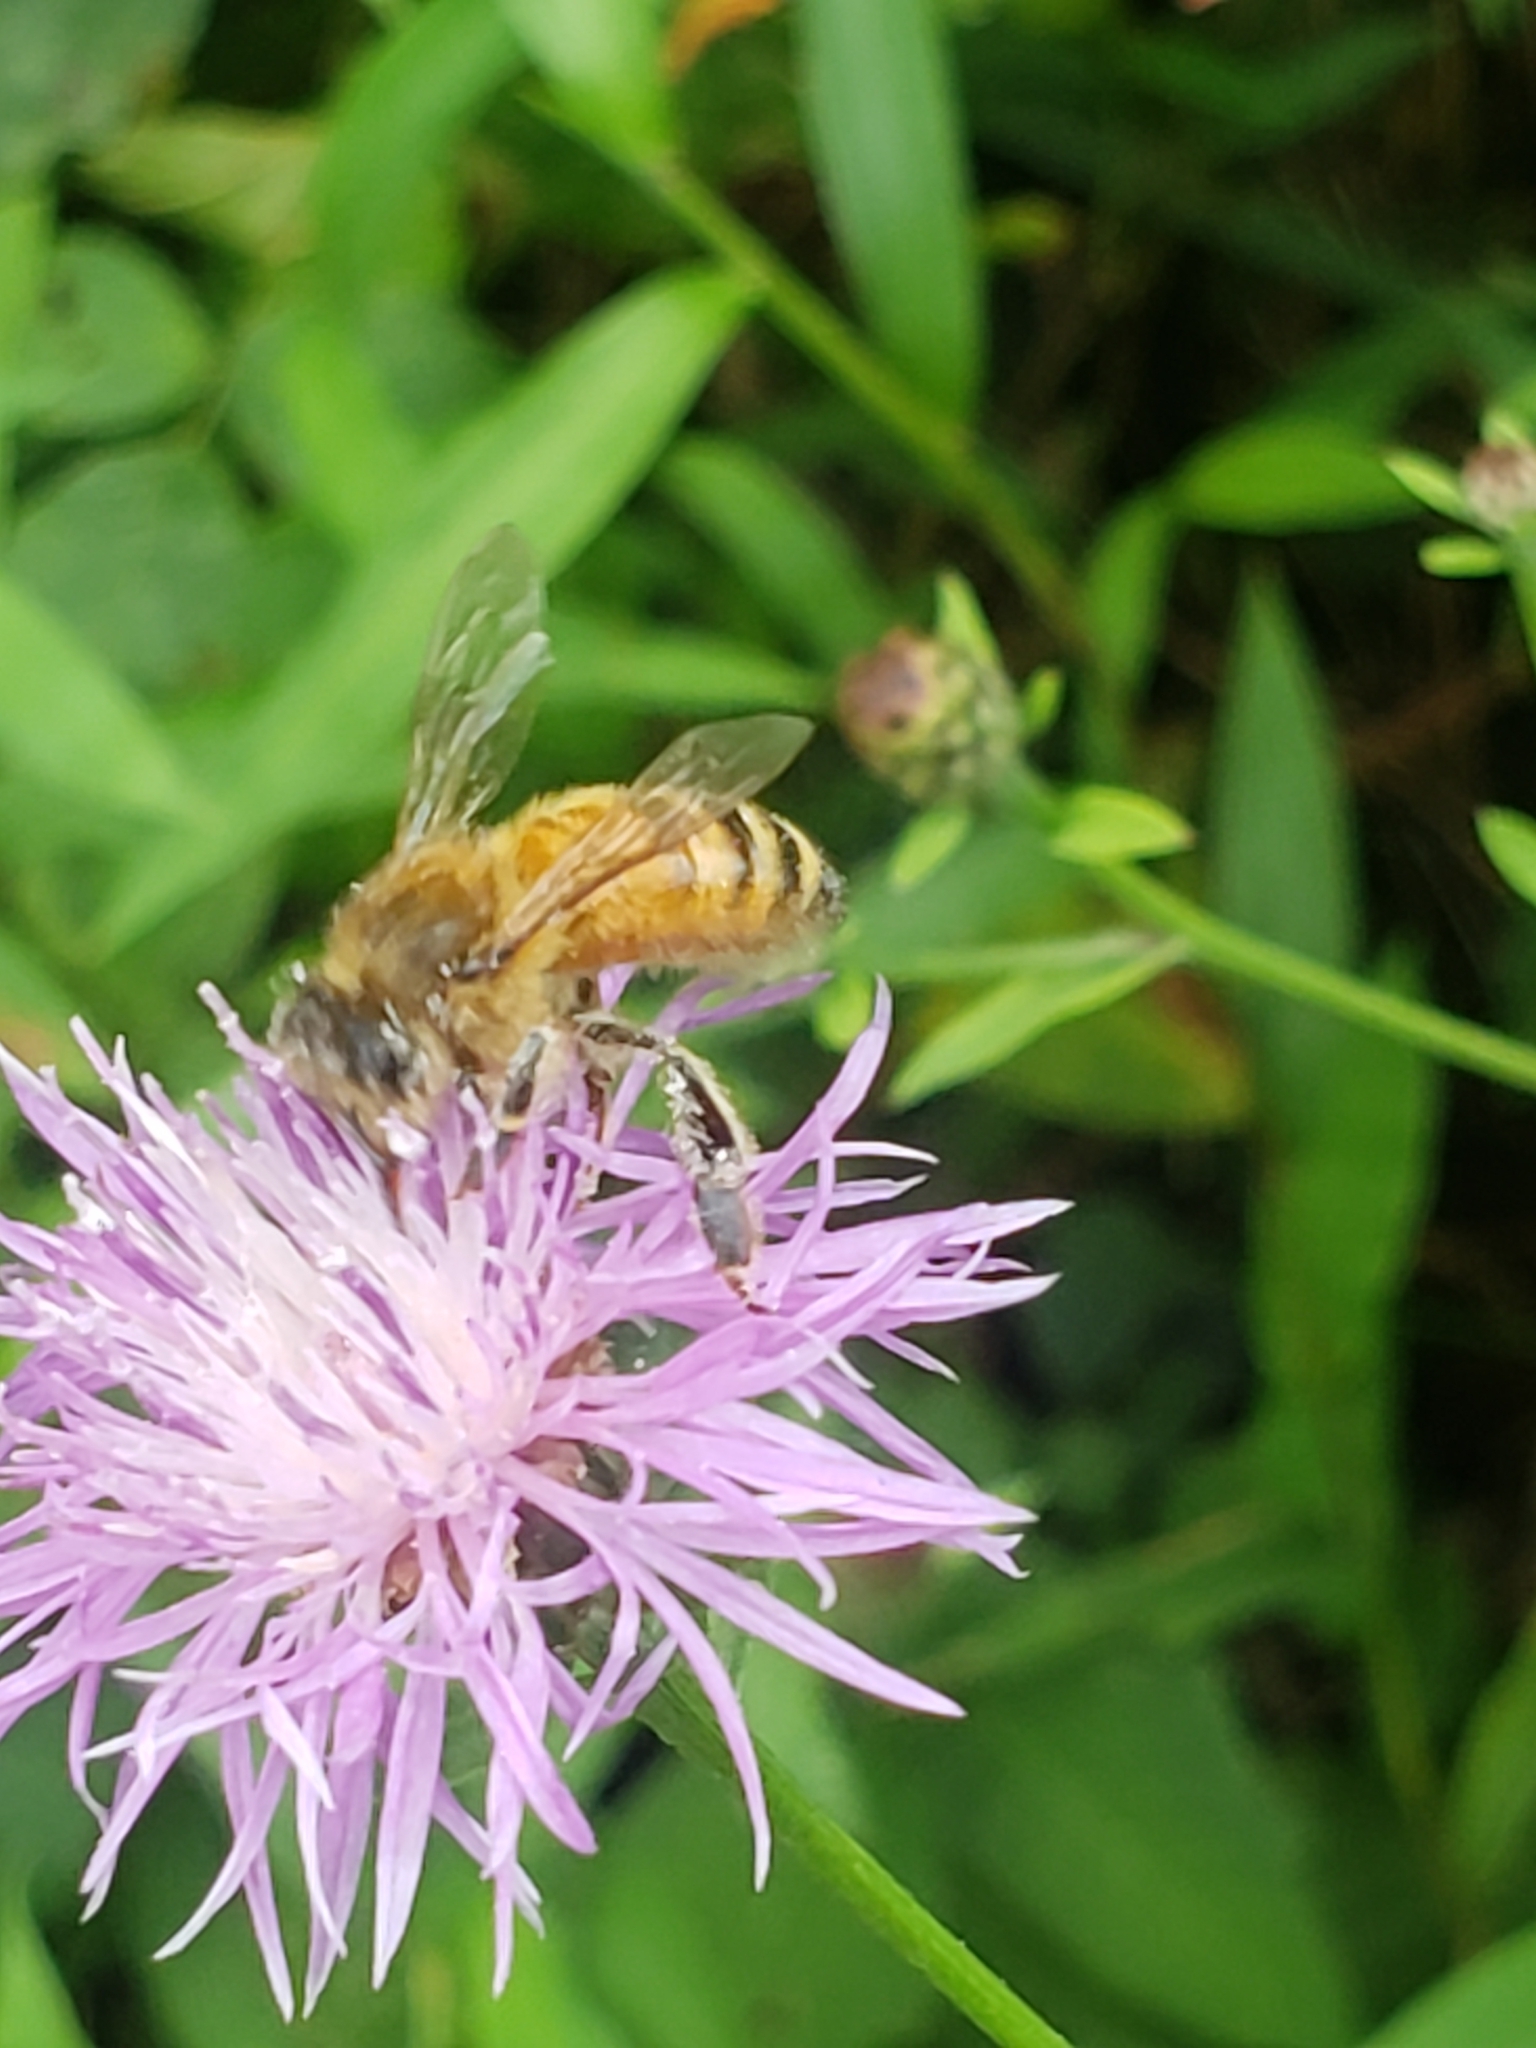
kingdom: Animalia
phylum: Arthropoda
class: Insecta
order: Hymenoptera
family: Apidae
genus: Apis
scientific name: Apis mellifera
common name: Honey bee
